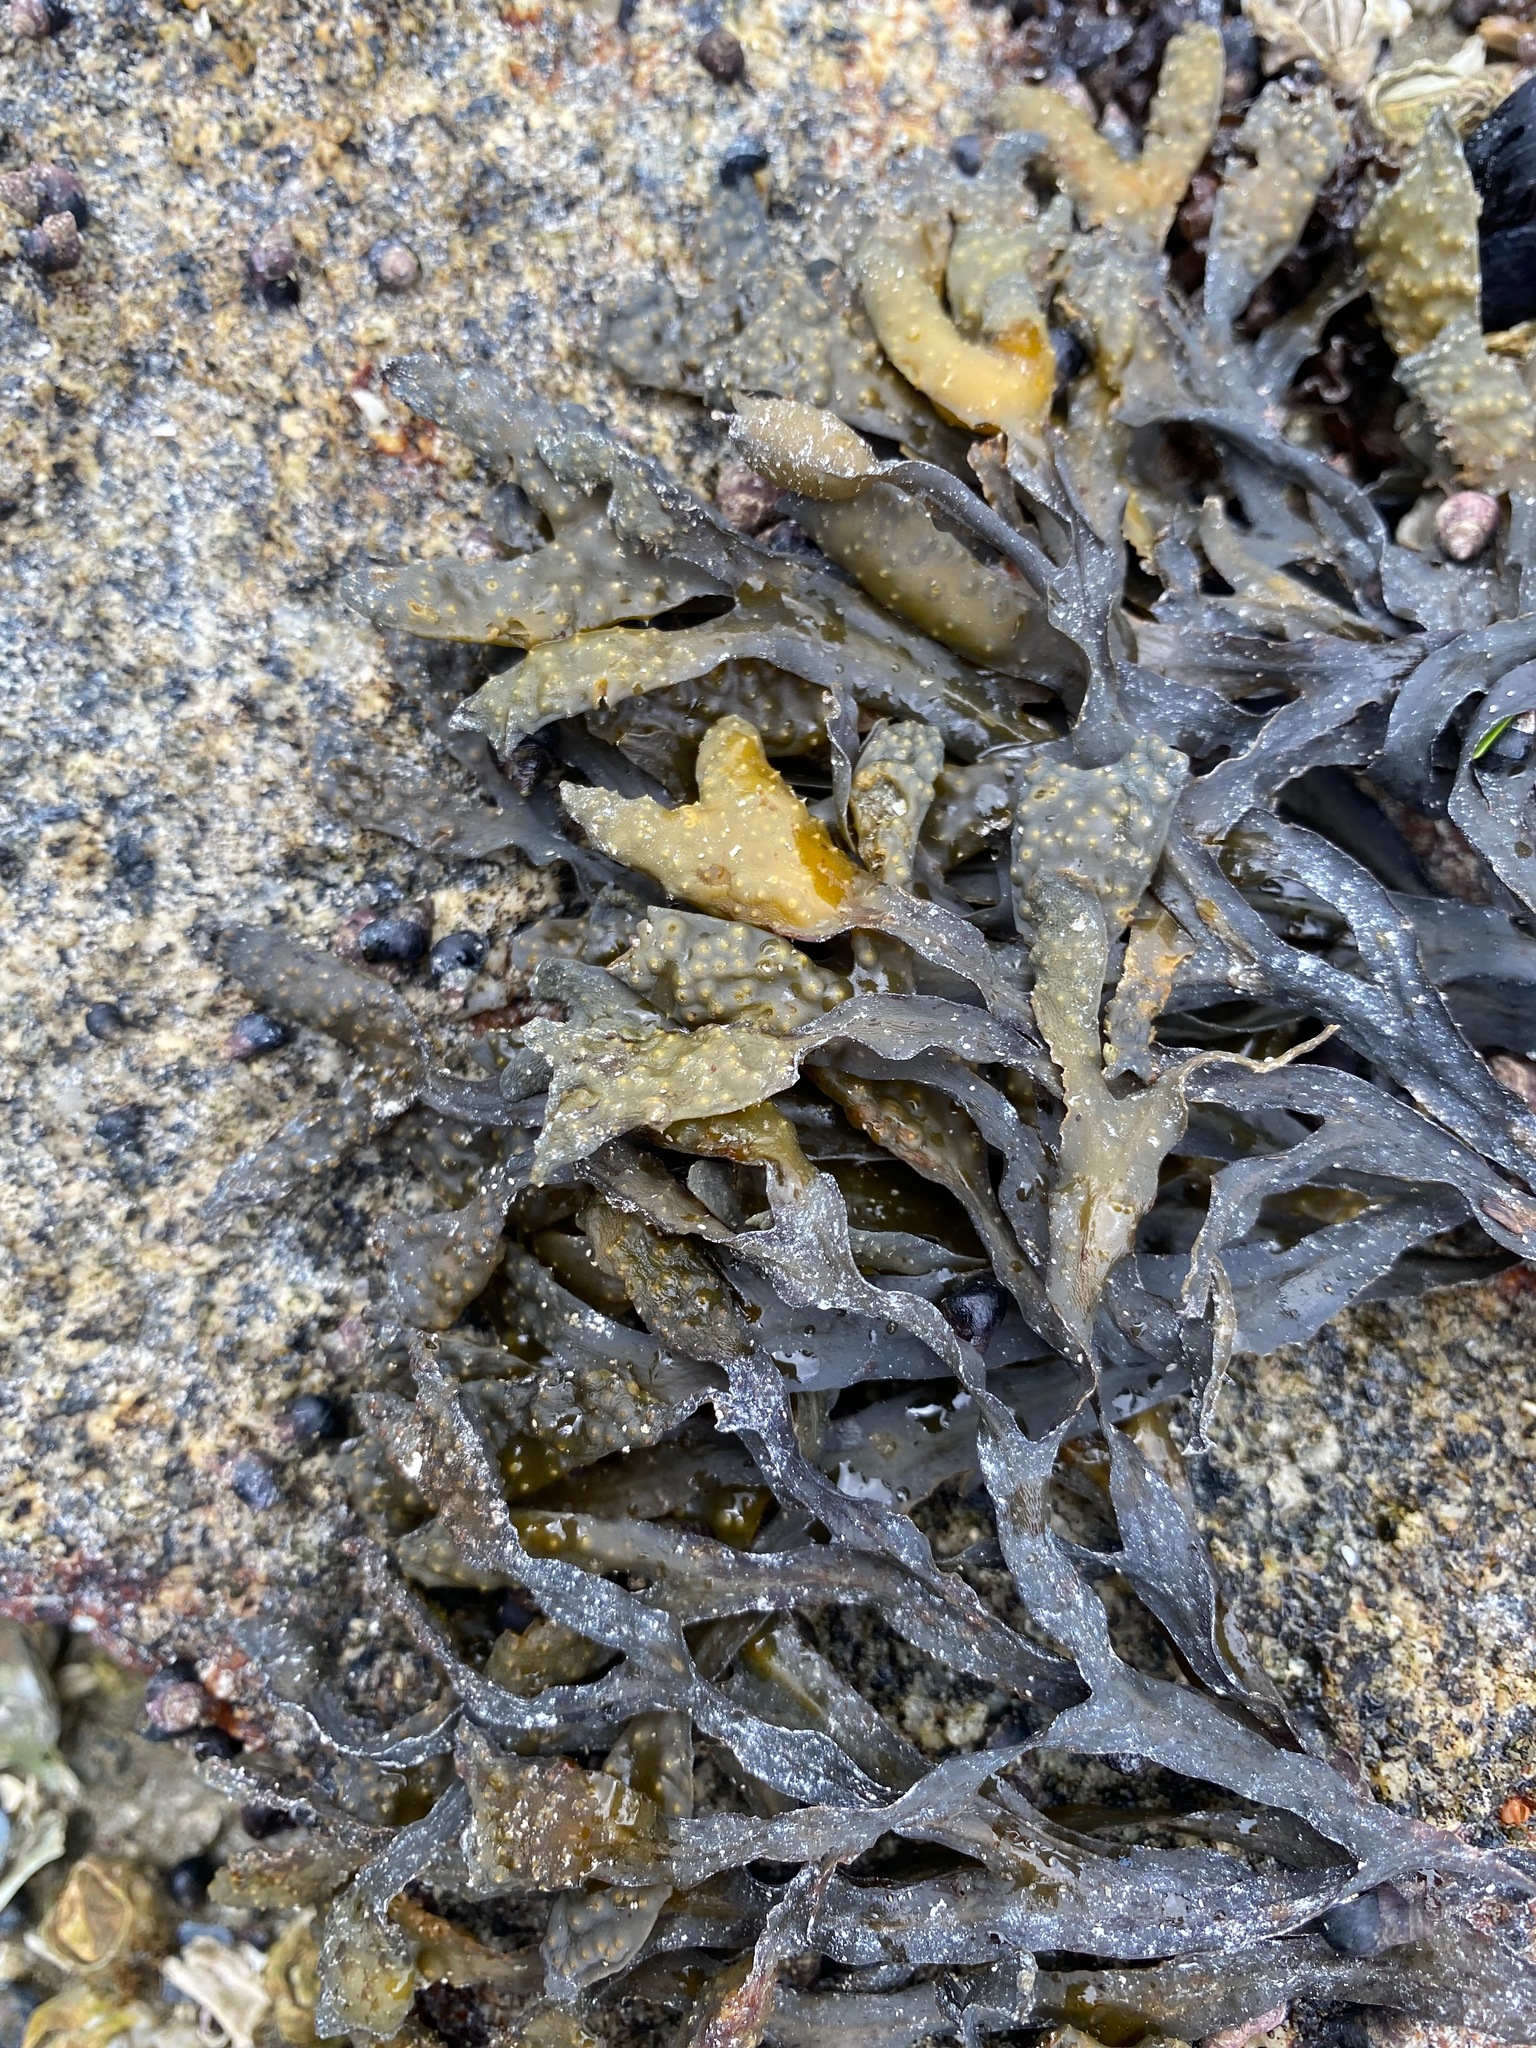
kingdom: Chromista
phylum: Ochrophyta
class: Phaeophyceae
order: Fucales
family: Fucaceae
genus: Fucus
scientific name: Fucus distichus
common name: Rockweed
